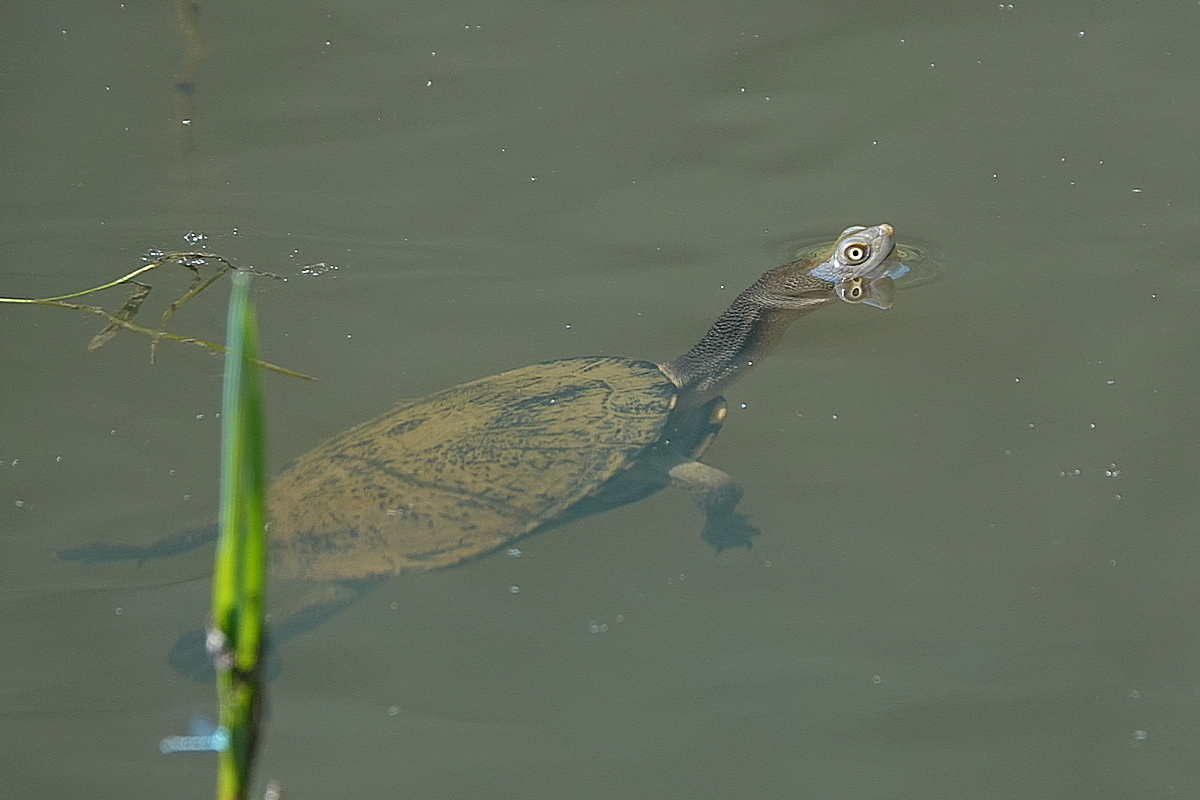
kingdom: Animalia
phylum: Chordata
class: Testudines
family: Chelidae
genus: Chelodina
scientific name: Chelodina longicollis
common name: Eastern snake-necked turtle
